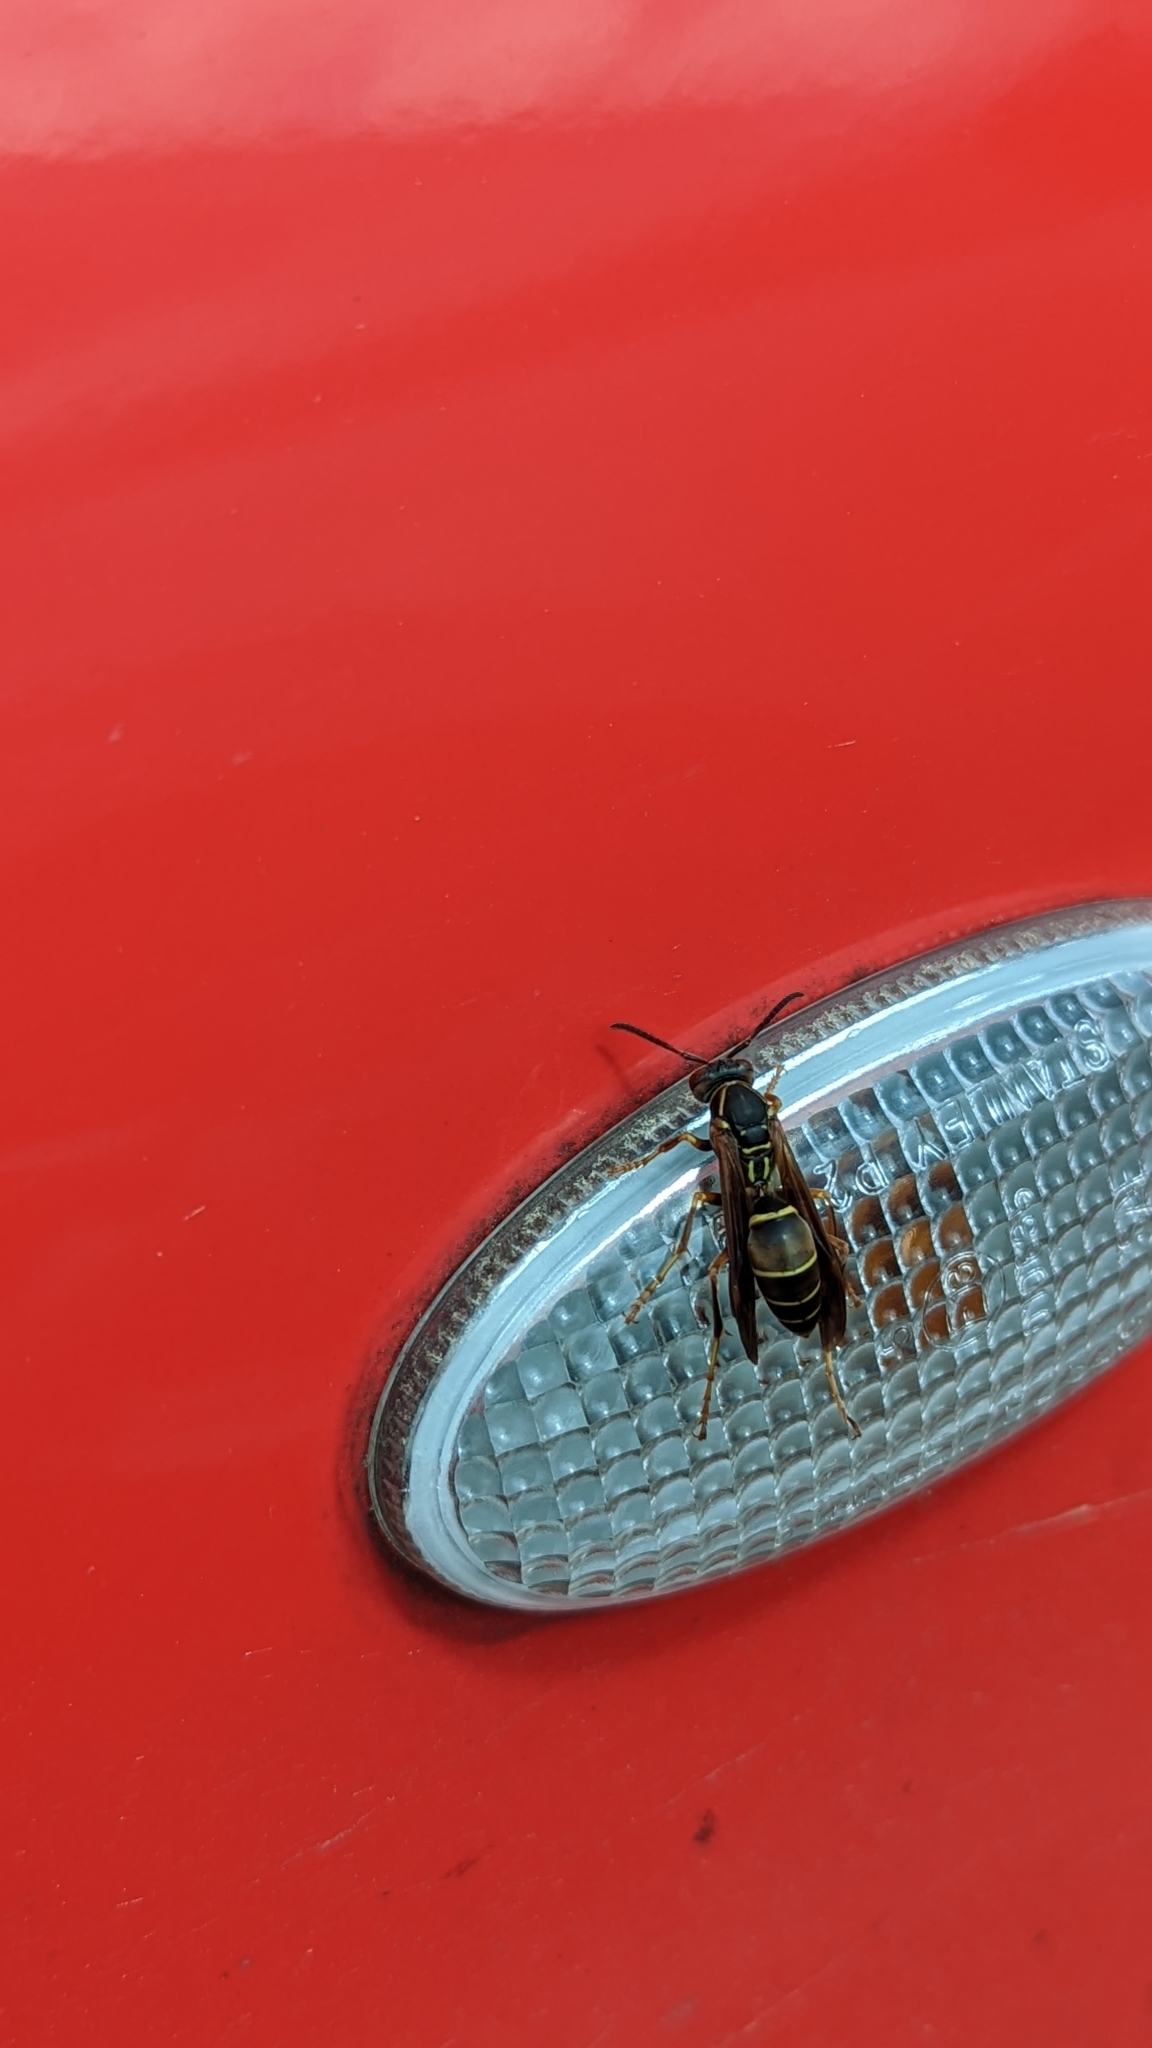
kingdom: Animalia
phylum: Arthropoda
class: Insecta
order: Hymenoptera
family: Eumenidae
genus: Polistes
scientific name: Polistes fuscatus
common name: Dark paper wasp
